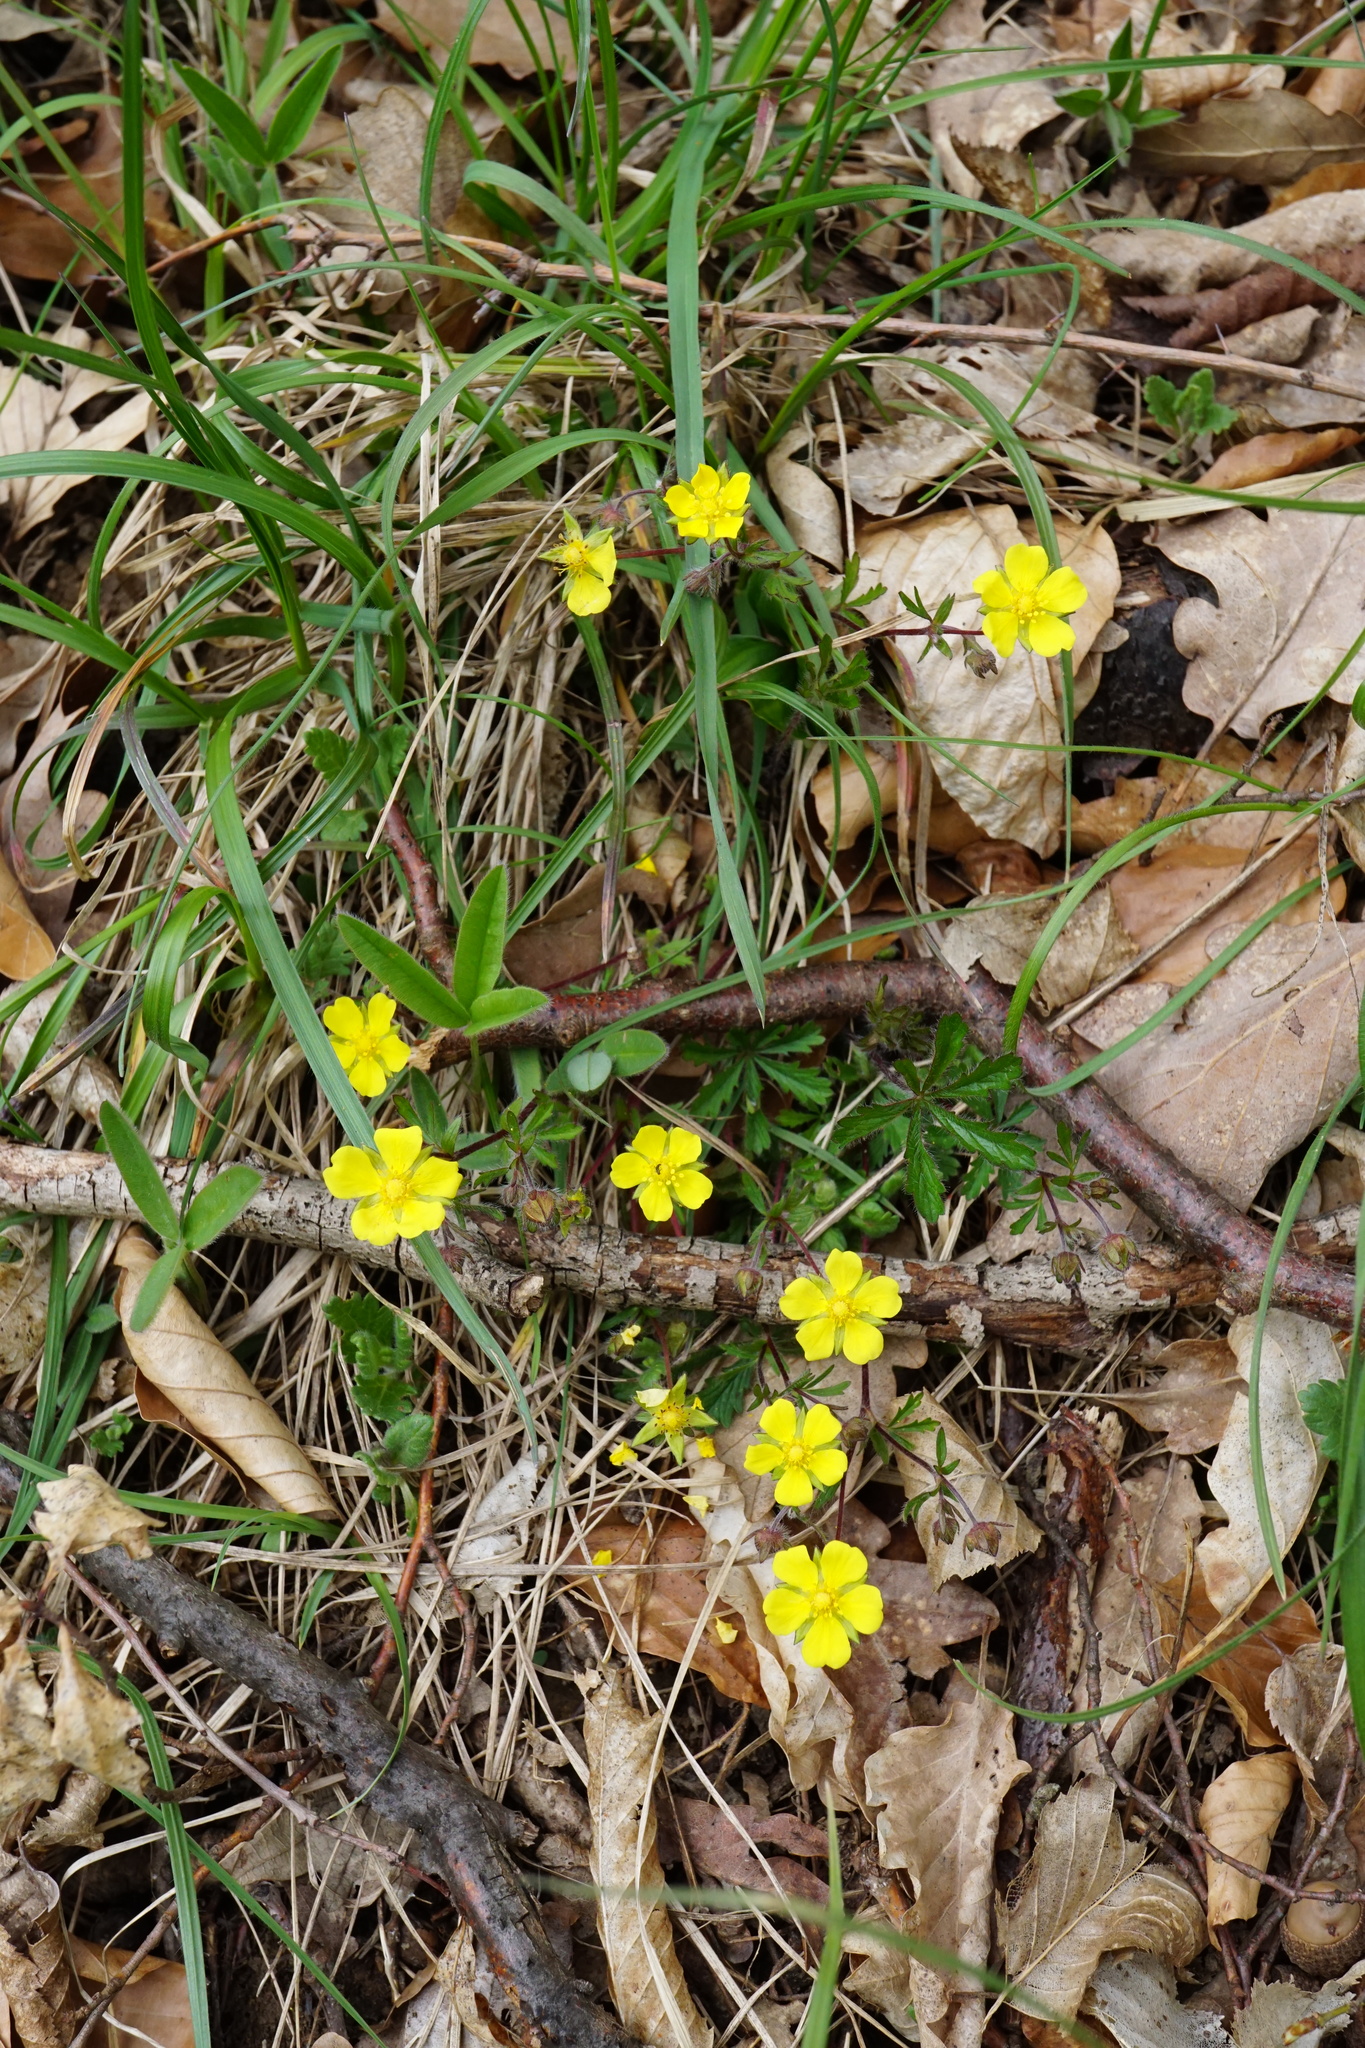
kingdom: Plantae
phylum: Tracheophyta
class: Magnoliopsida
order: Rosales
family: Rosaceae
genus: Potentilla
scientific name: Potentilla heptaphylla
